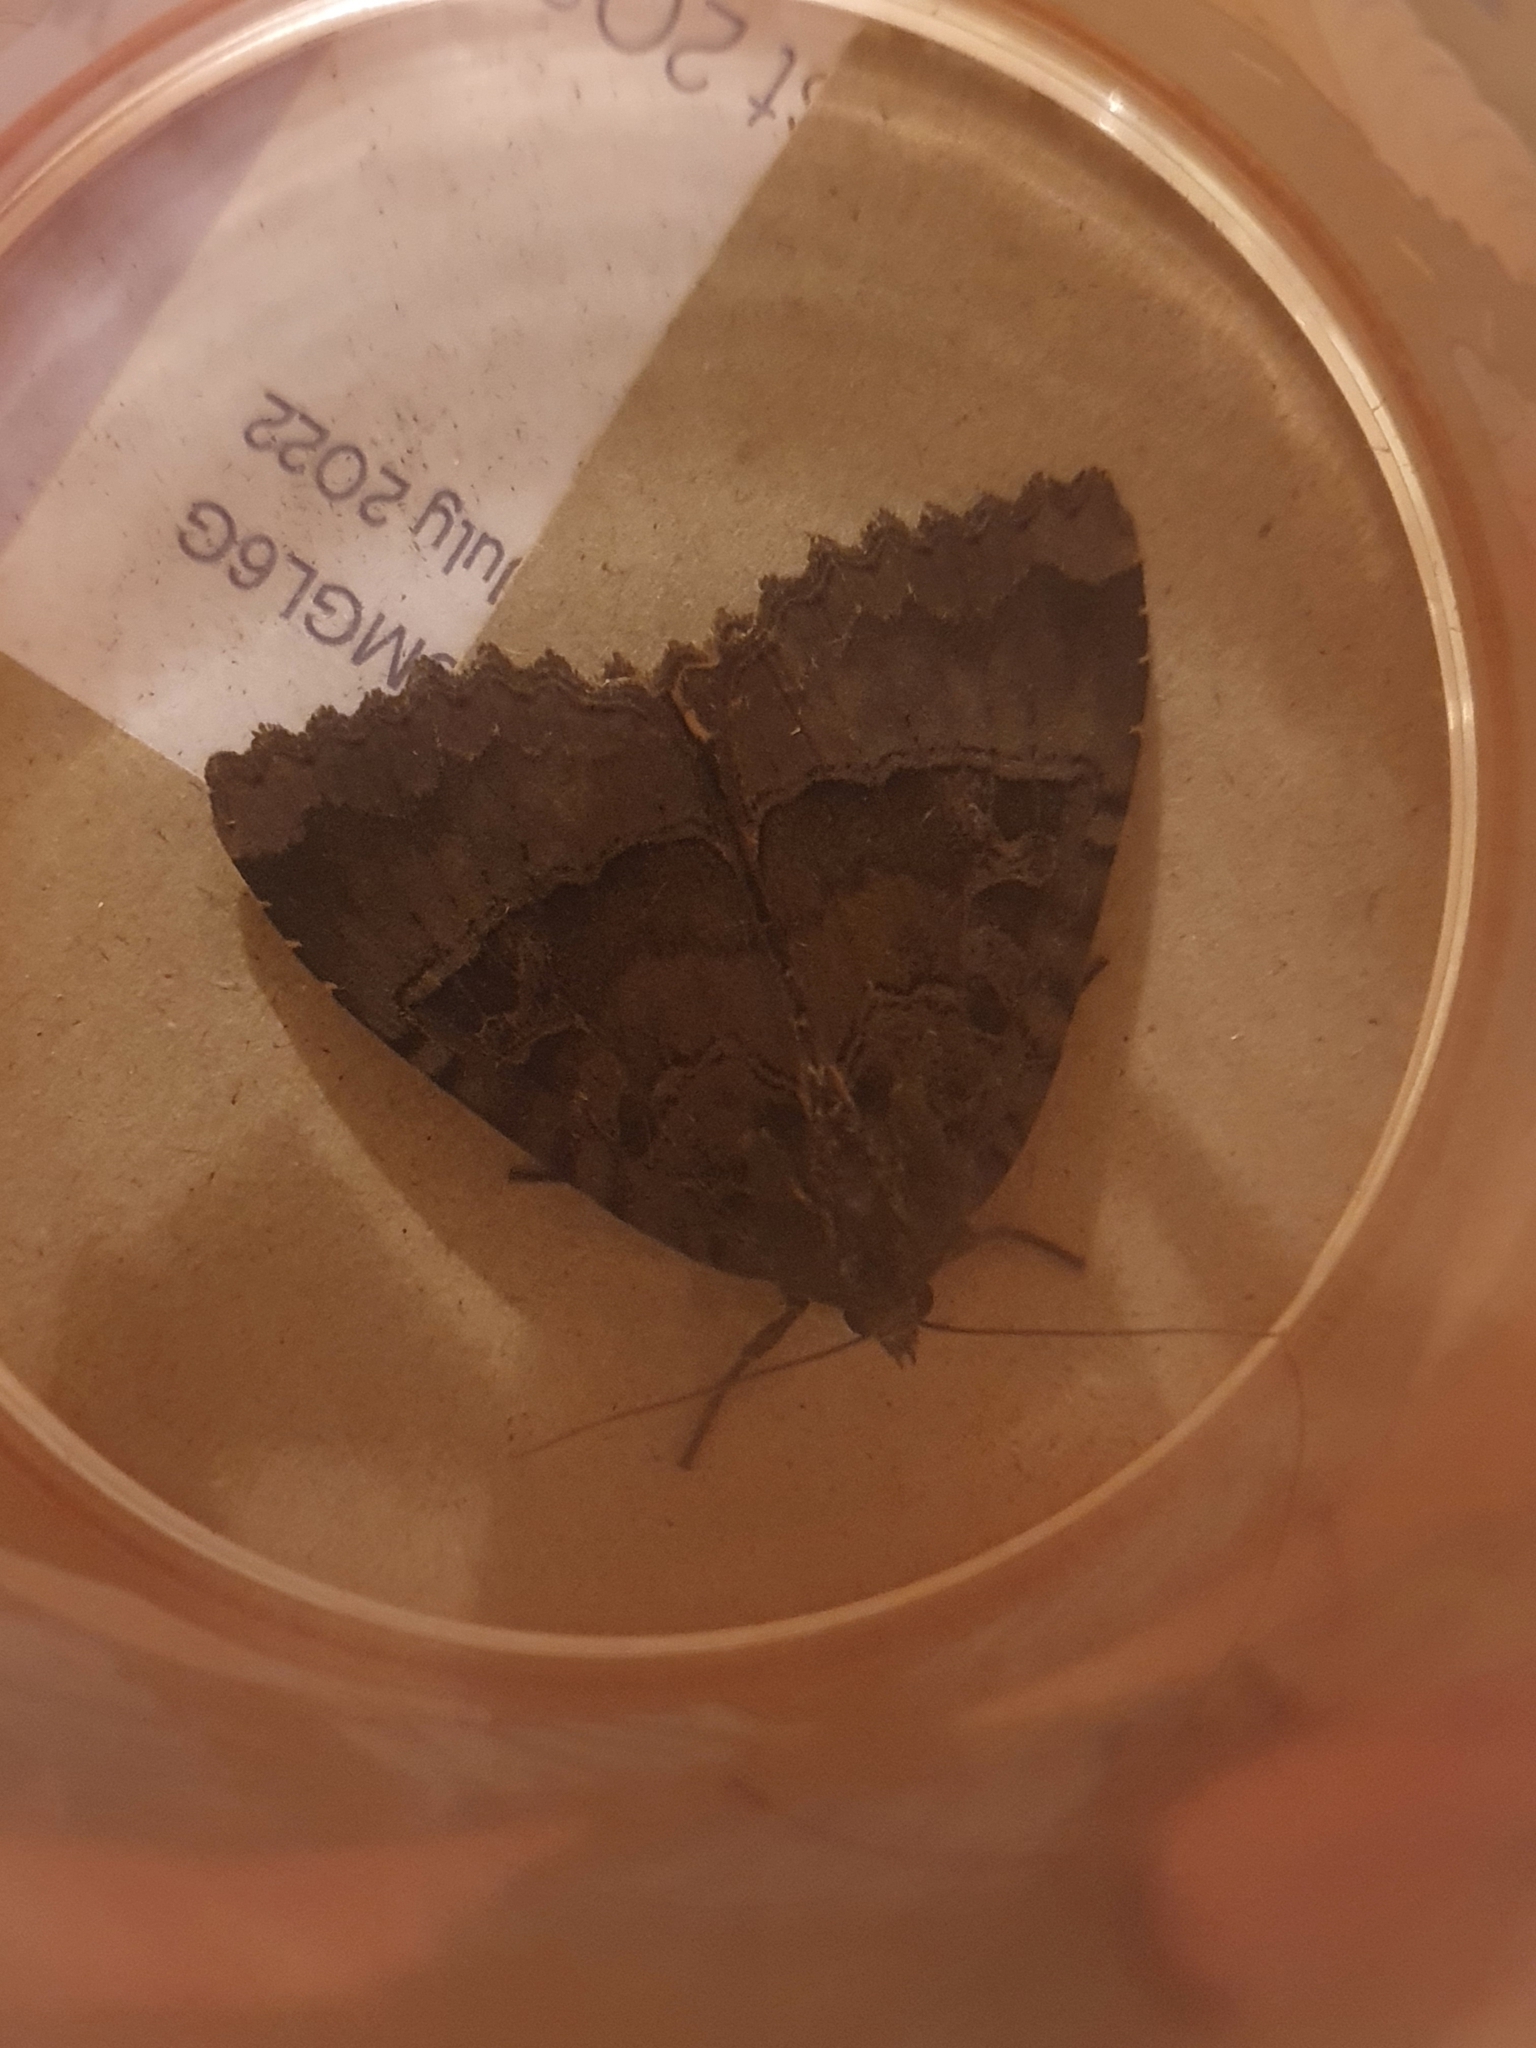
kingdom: Animalia
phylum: Arthropoda
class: Insecta
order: Lepidoptera
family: Noctuidae
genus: Mormo
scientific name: Mormo maura
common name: Old lady
